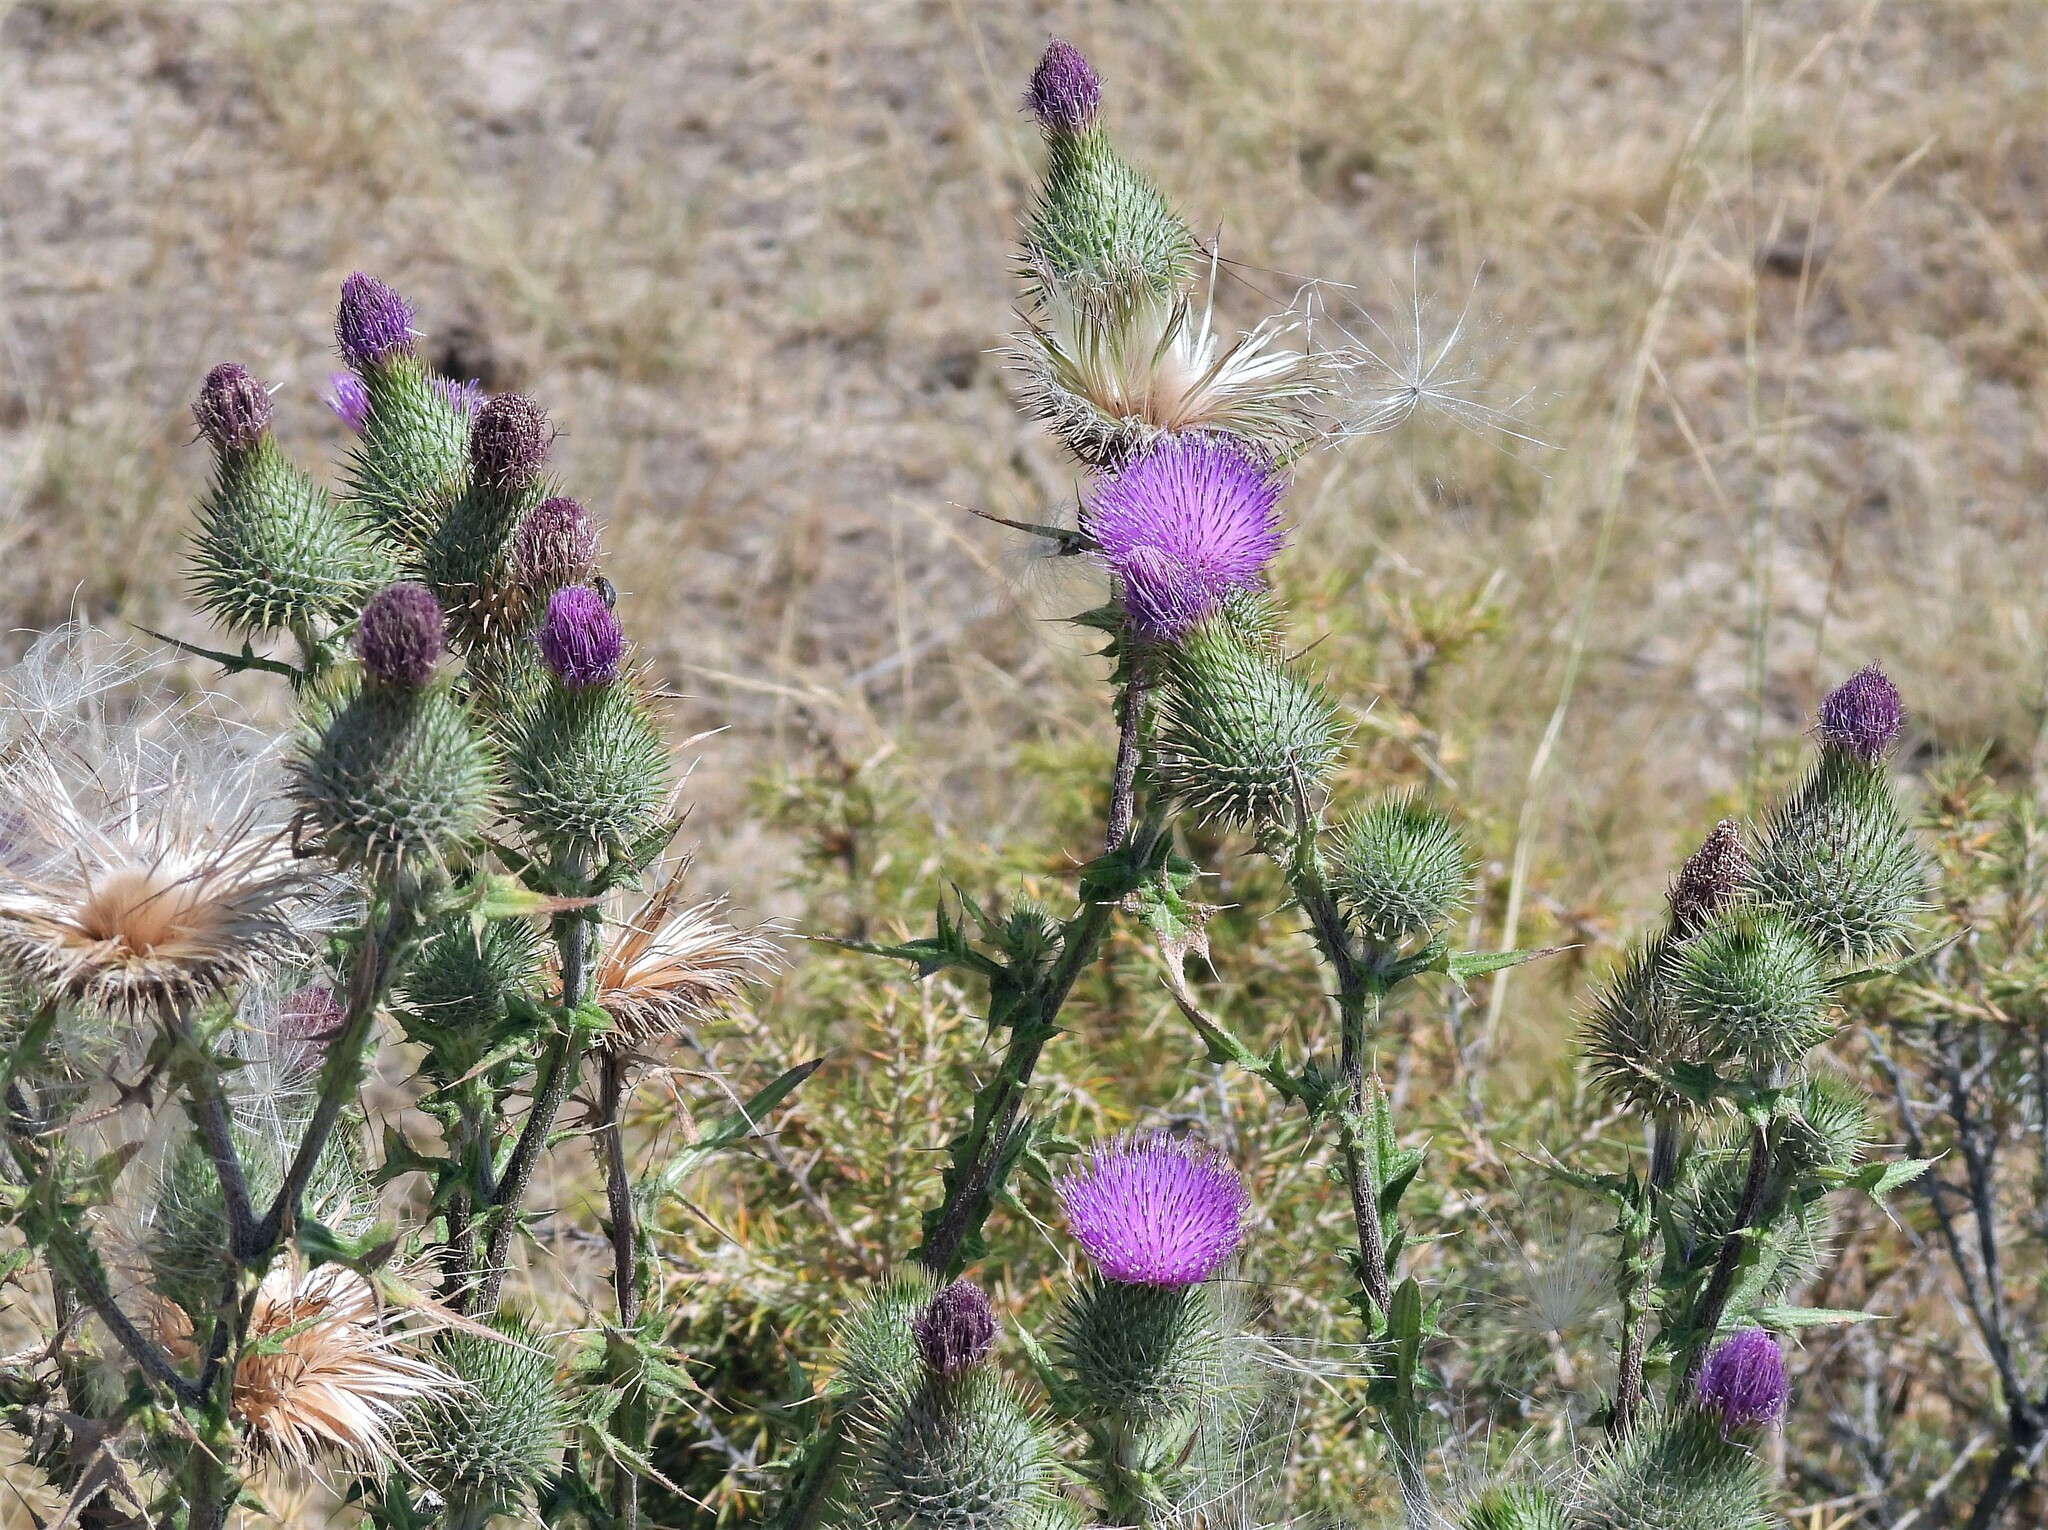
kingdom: Plantae
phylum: Tracheophyta
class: Magnoliopsida
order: Asterales
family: Asteraceae
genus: Cirsium
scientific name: Cirsium vulgare
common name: Bull thistle
